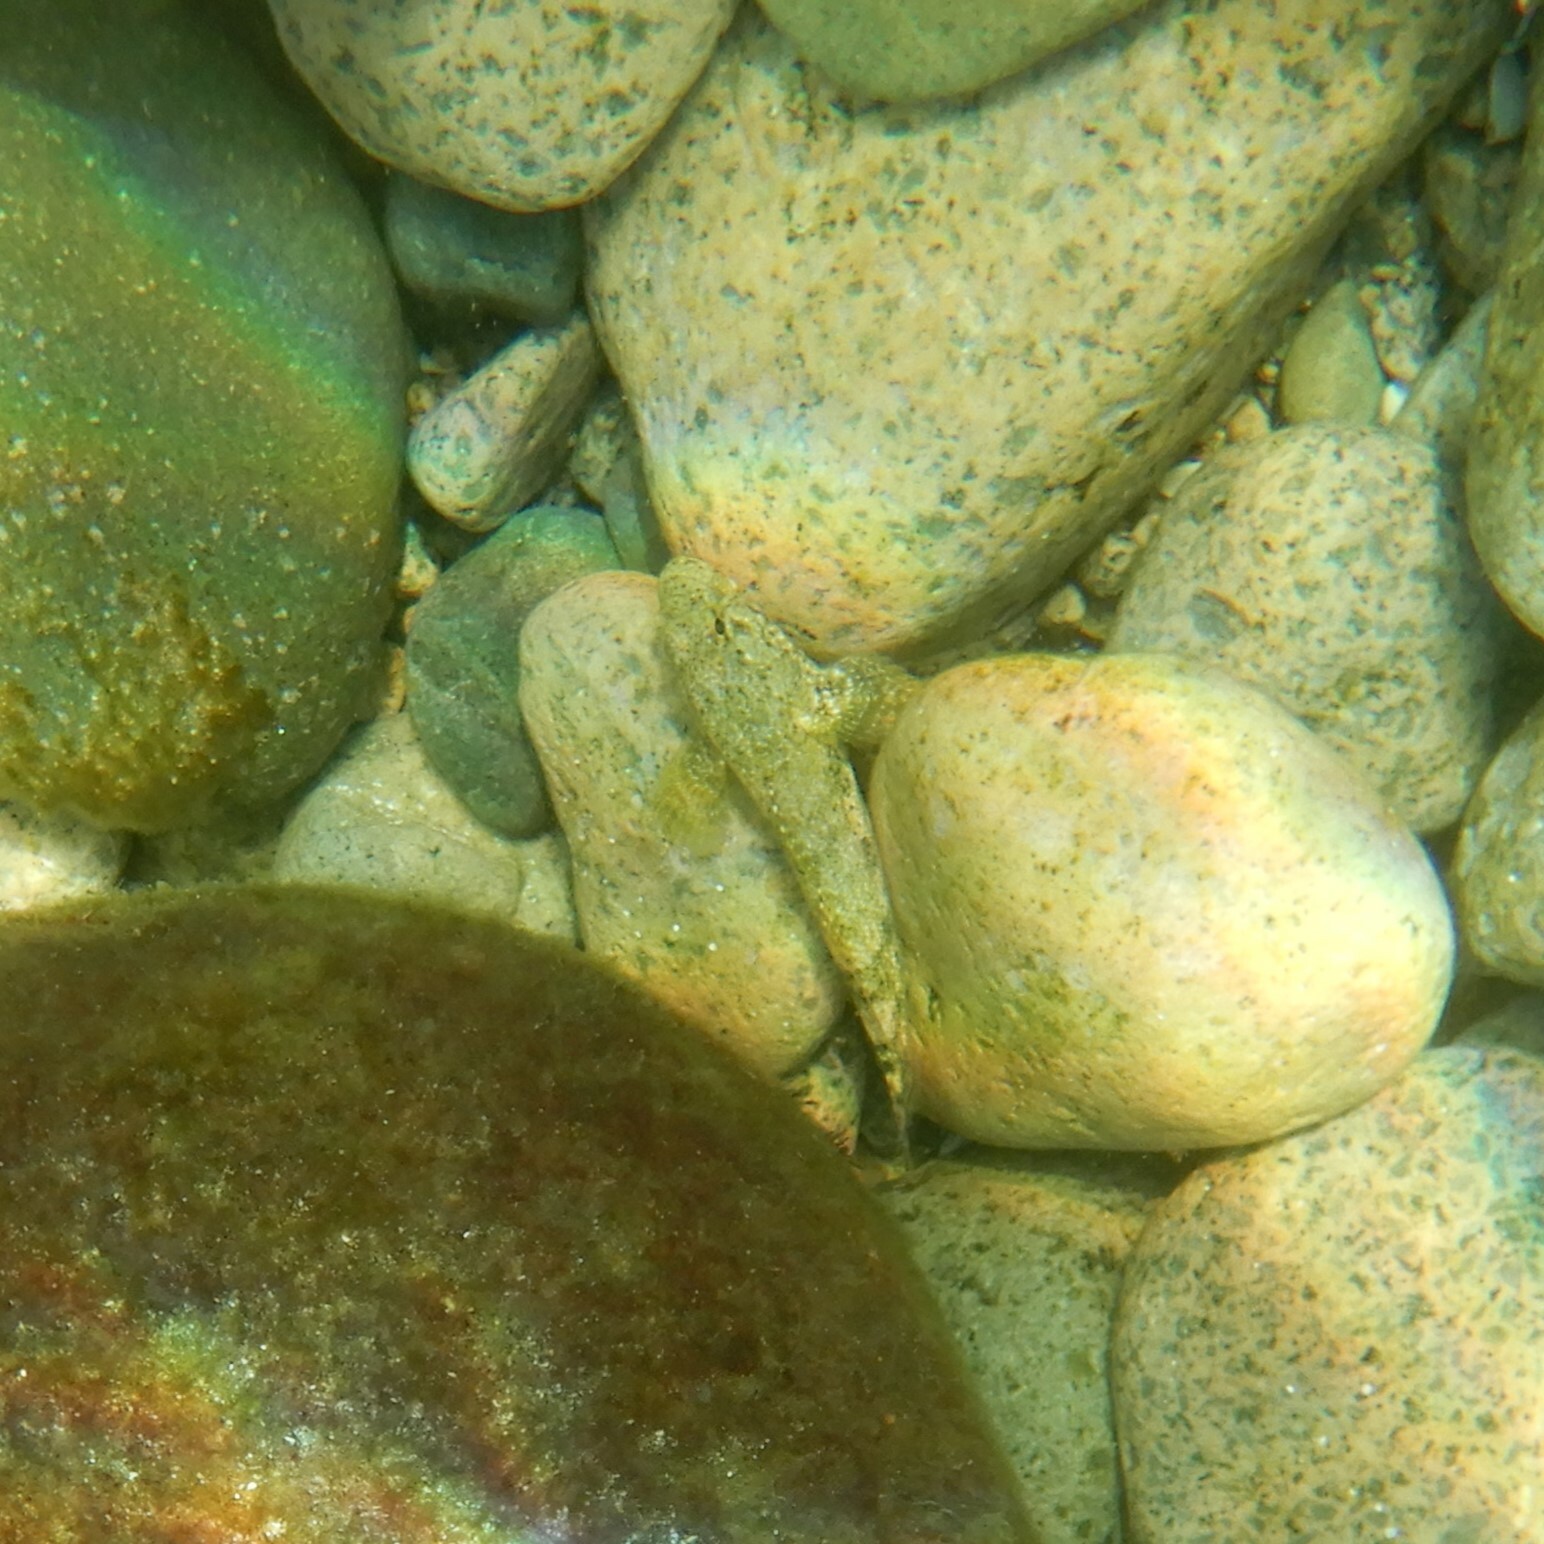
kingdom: Animalia
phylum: Chordata
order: Perciformes
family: Gobiidae
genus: Gobius
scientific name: Gobius cobitis
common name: Giant goby
